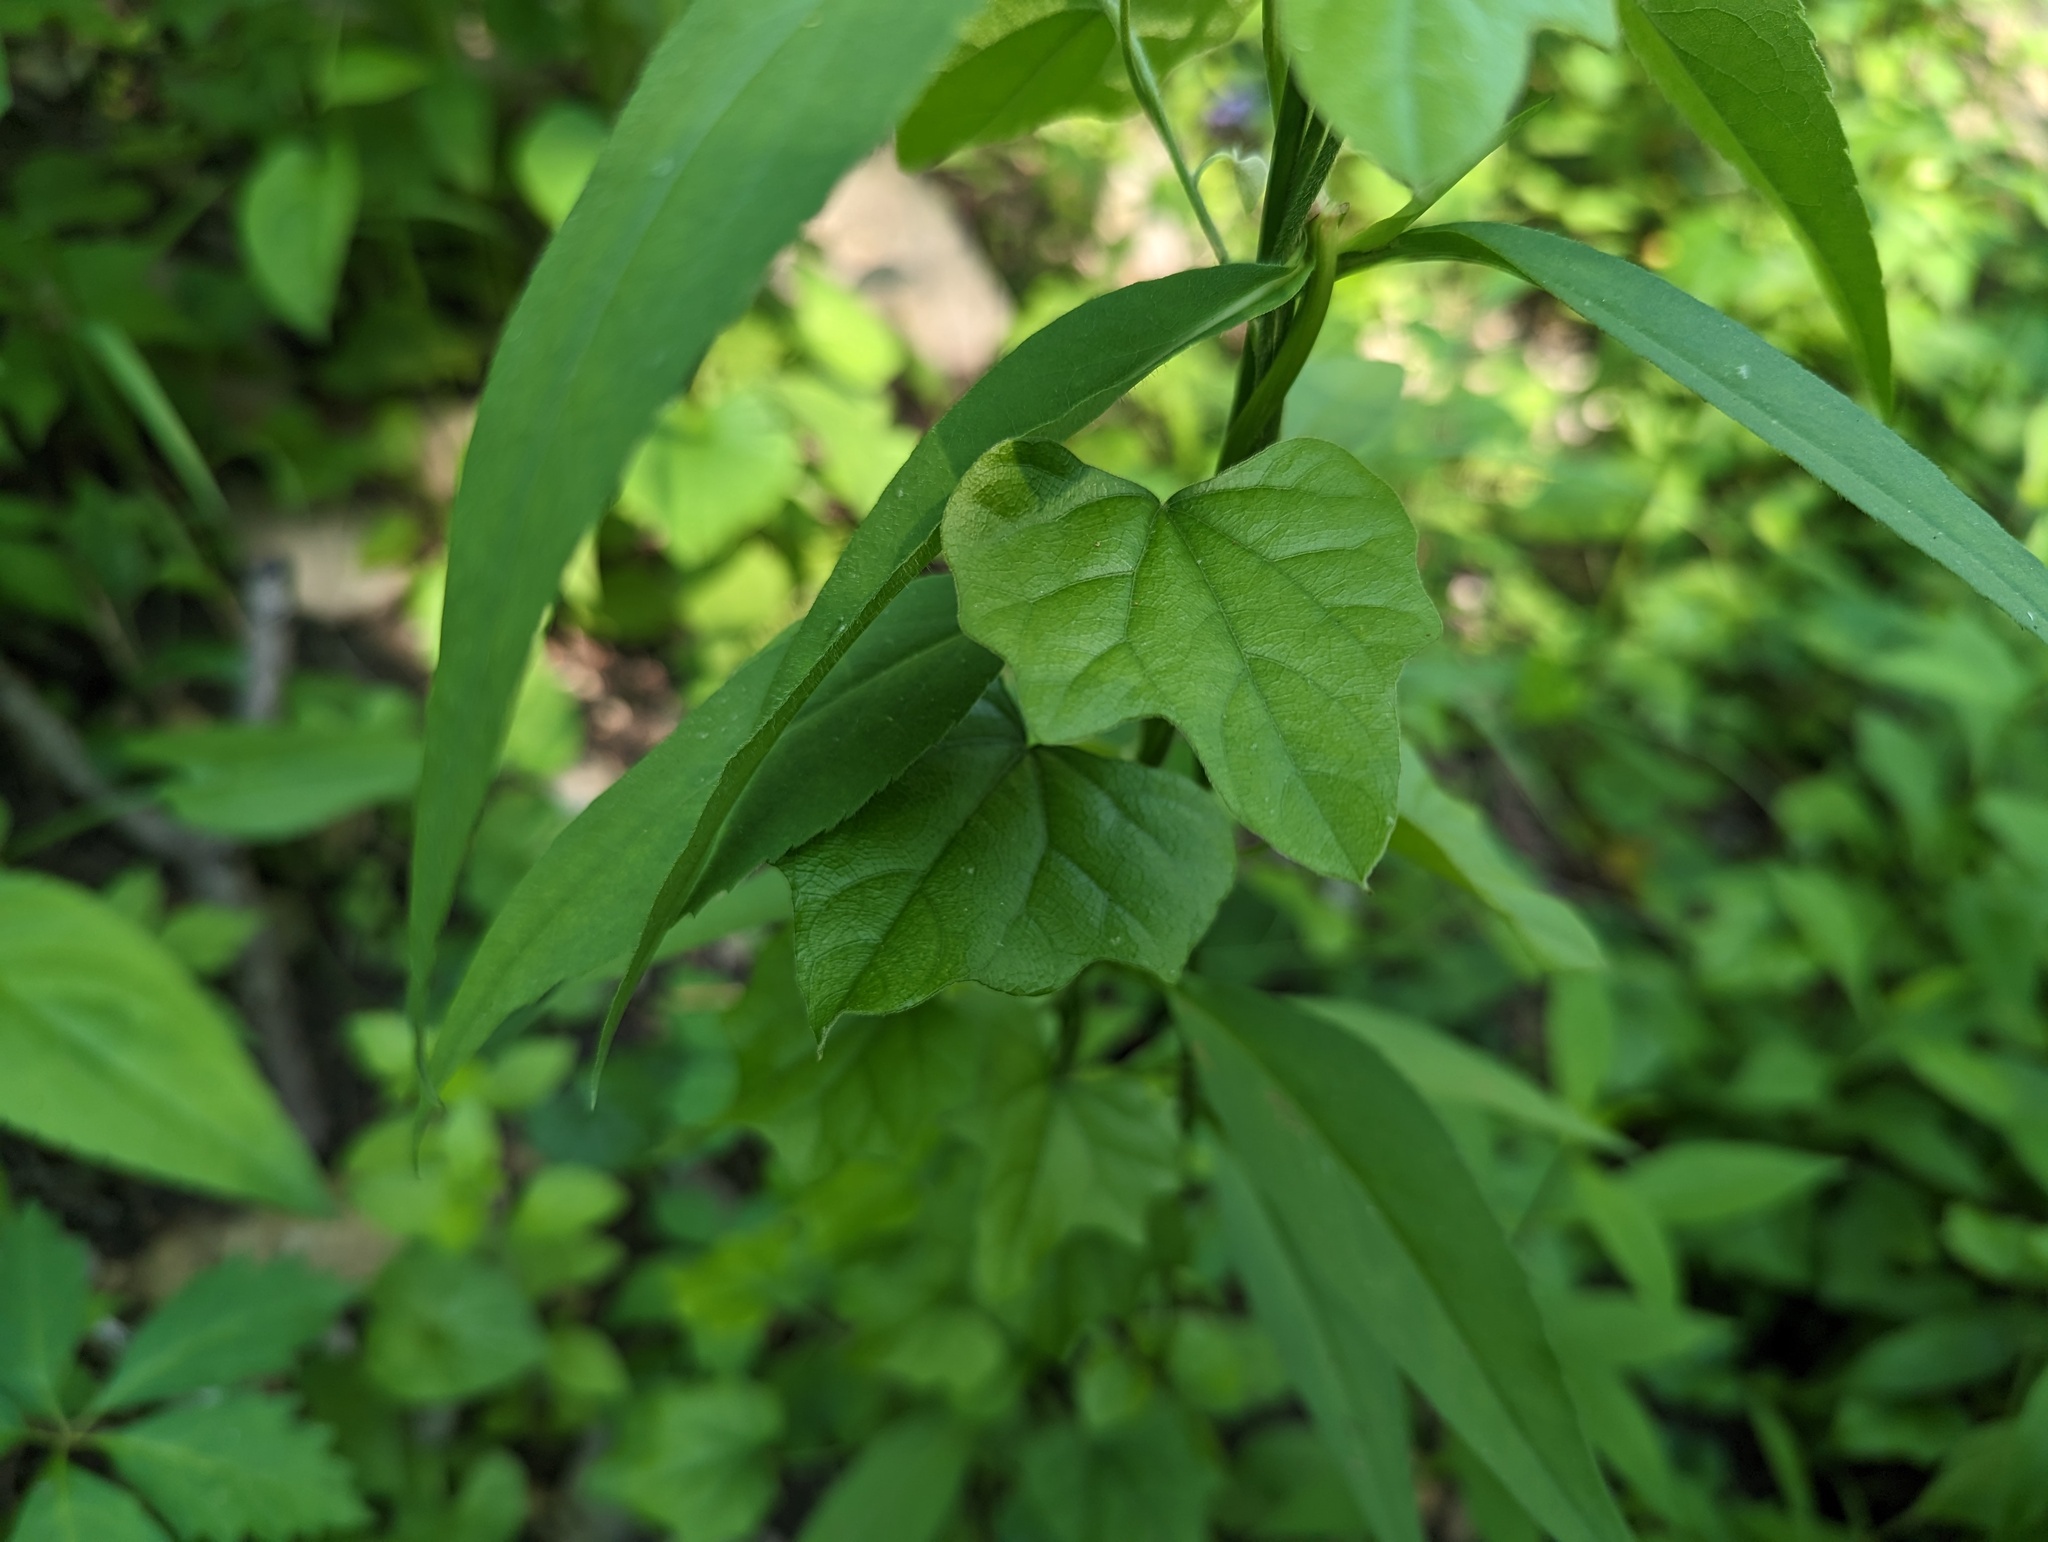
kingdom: Plantae
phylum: Tracheophyta
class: Magnoliopsida
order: Ranunculales
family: Menispermaceae
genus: Cocculus
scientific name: Cocculus carolinus
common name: Carolina moonseed
